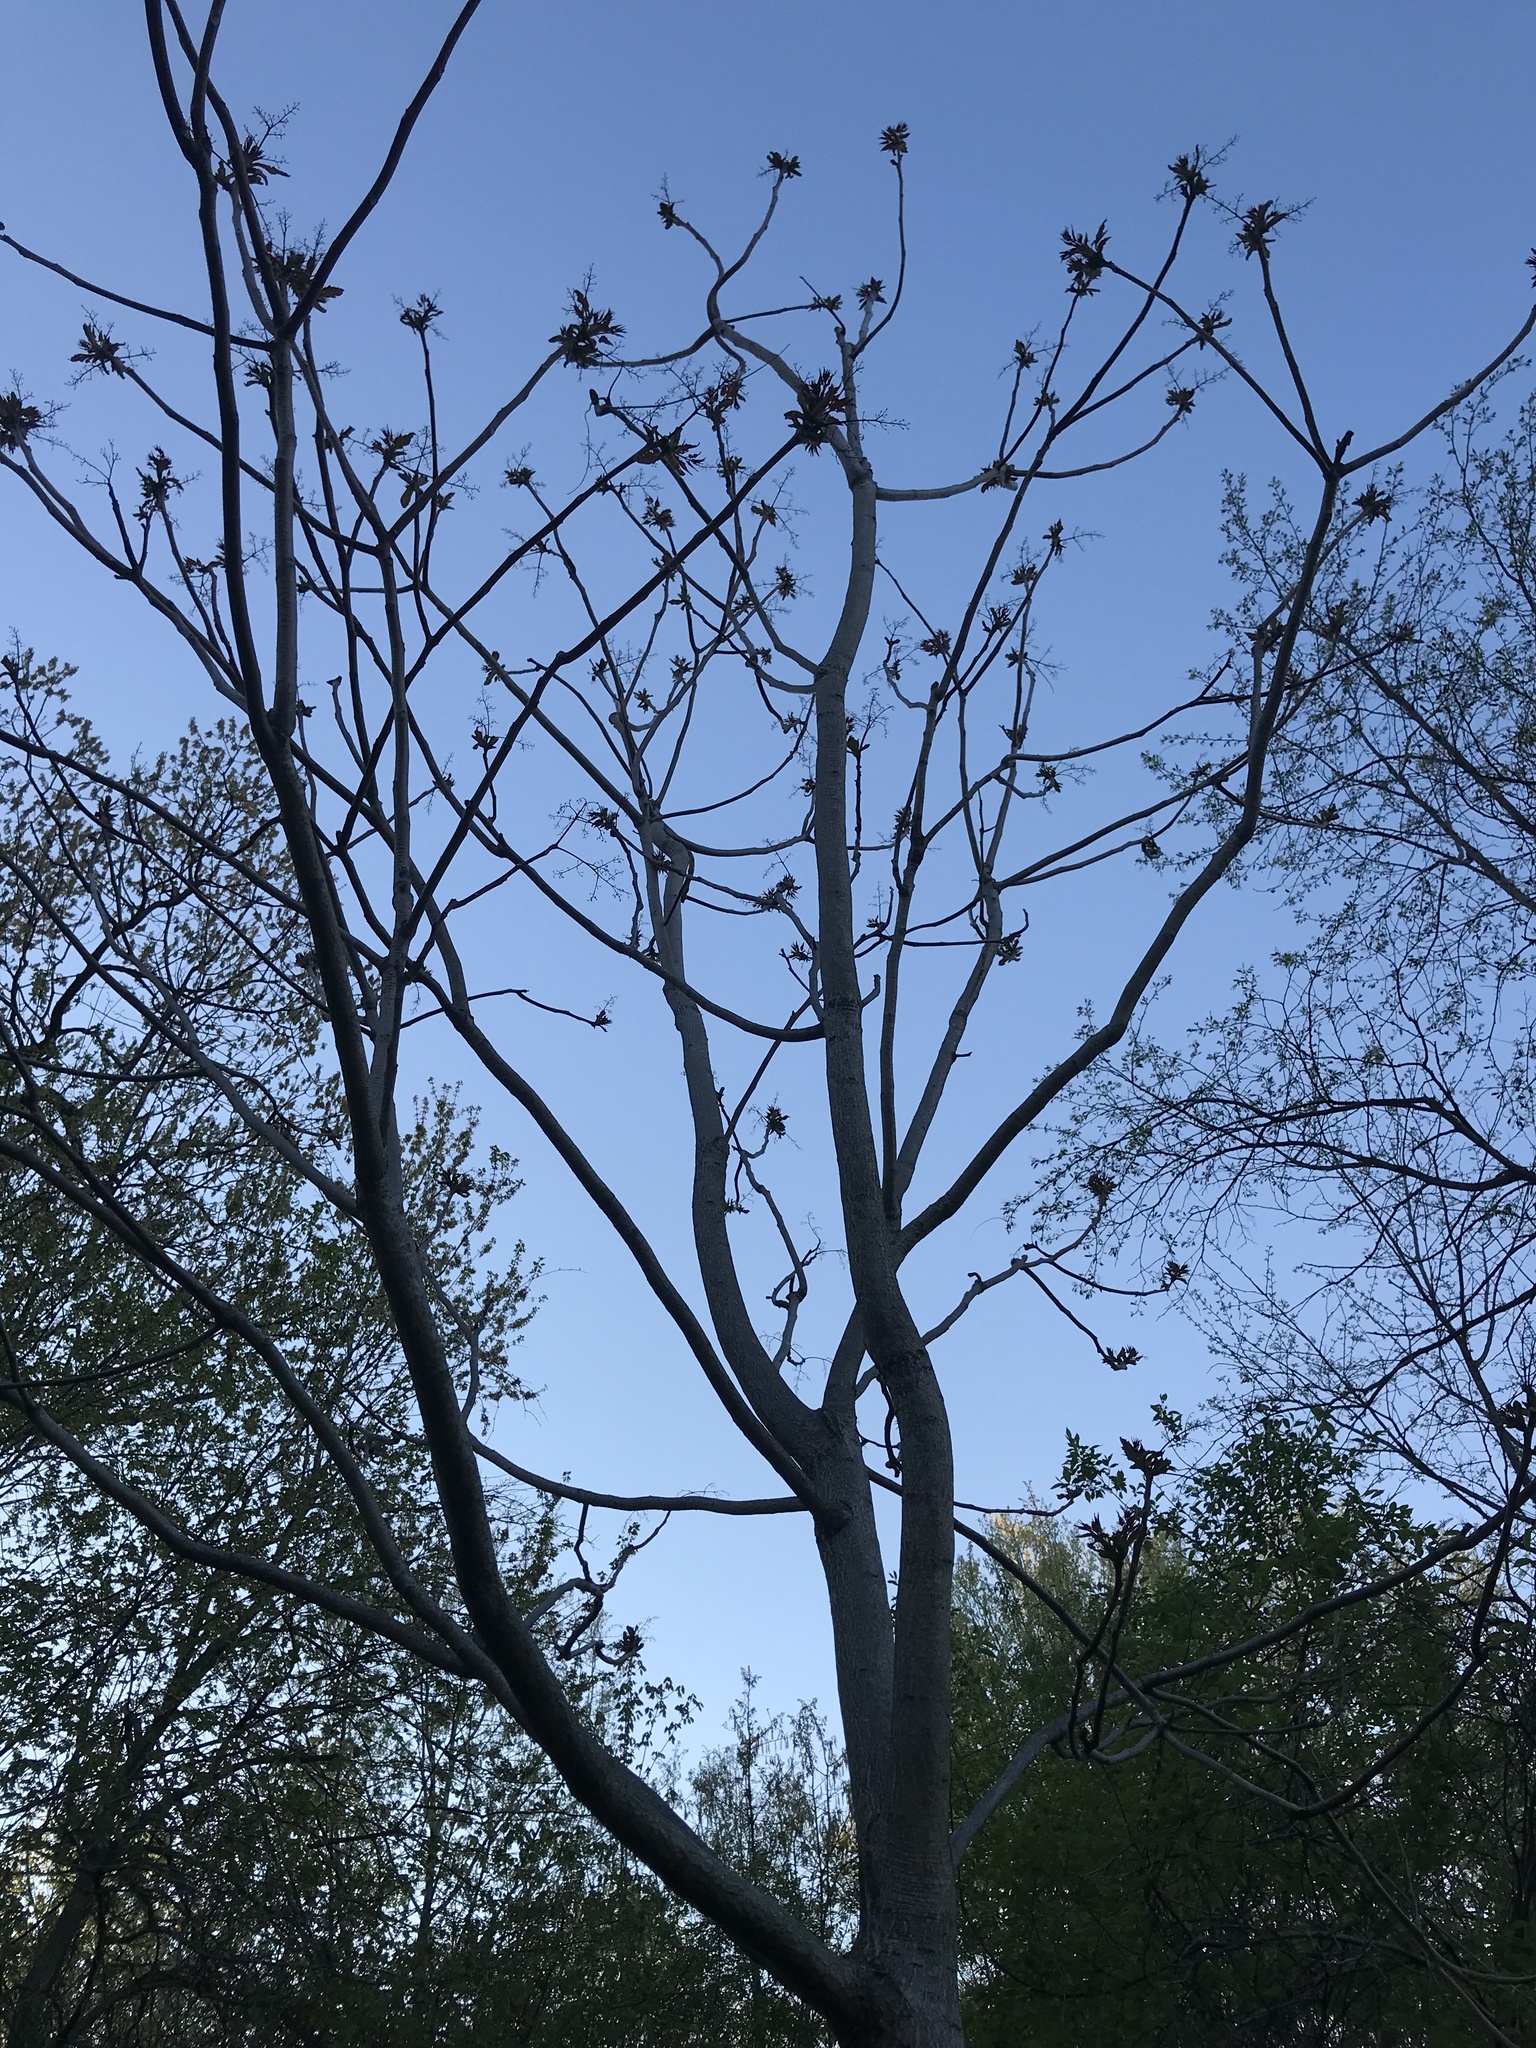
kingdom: Plantae
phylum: Tracheophyta
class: Magnoliopsida
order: Sapindales
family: Simaroubaceae
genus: Ailanthus
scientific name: Ailanthus altissima
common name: Tree-of-heaven
